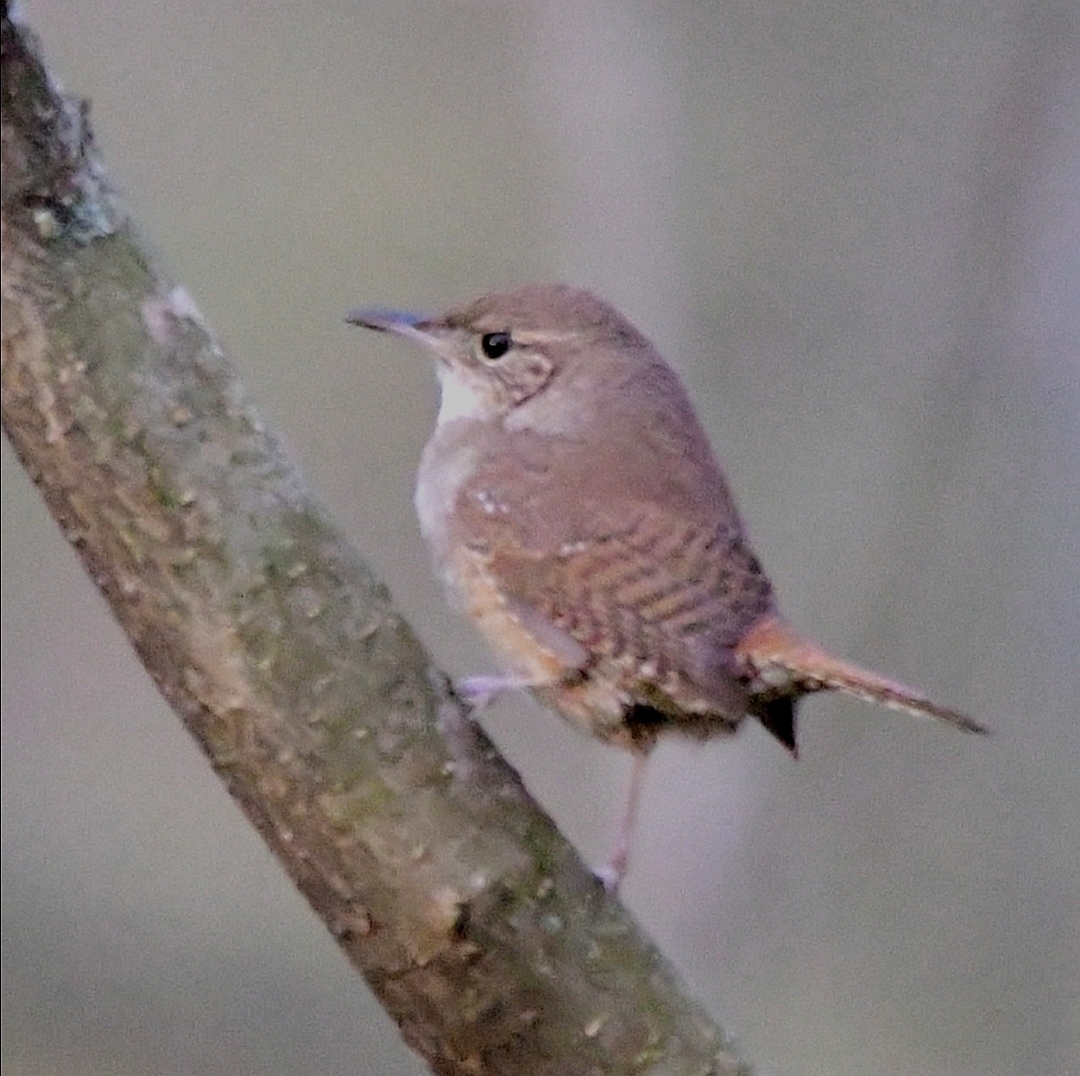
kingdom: Animalia
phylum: Chordata
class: Aves
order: Passeriformes
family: Troglodytidae
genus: Troglodytes
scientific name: Troglodytes aedon
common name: House wren
